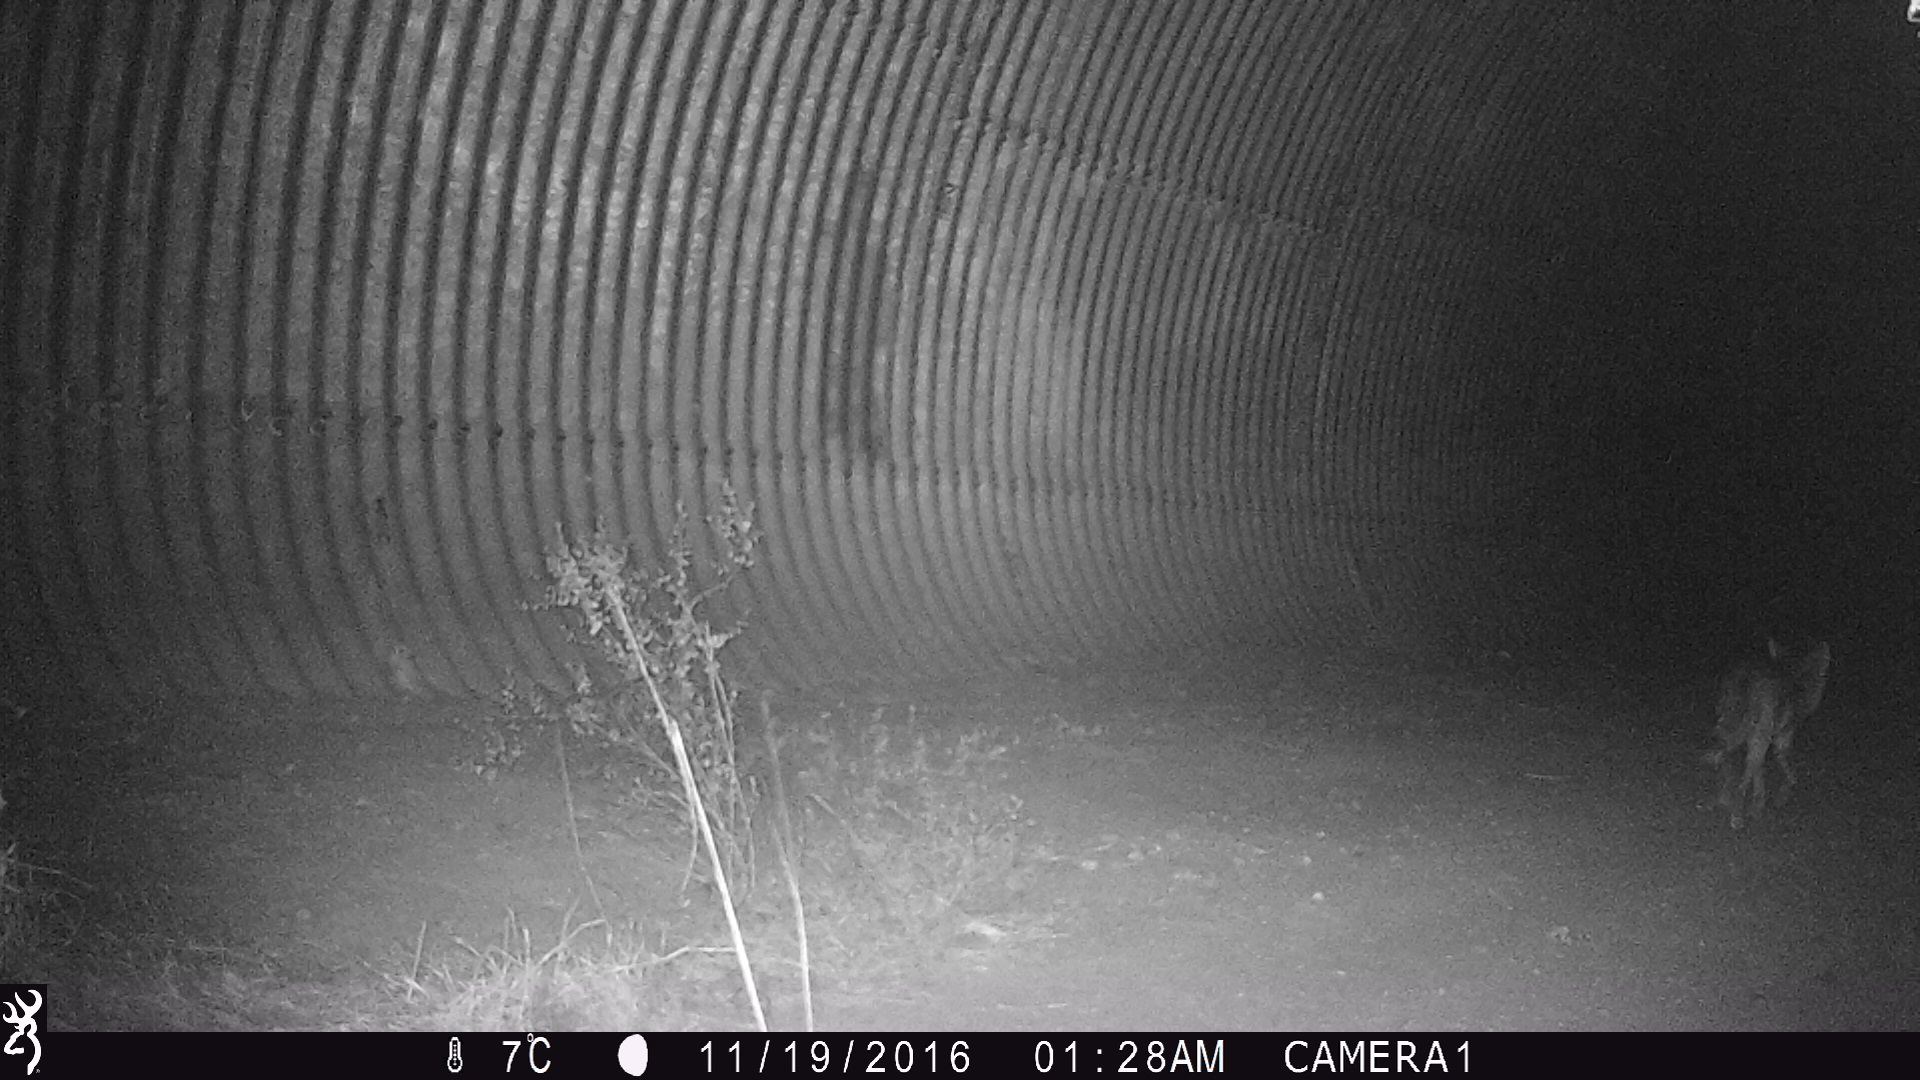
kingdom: Animalia
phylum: Chordata
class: Mammalia
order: Carnivora
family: Canidae
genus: Canis
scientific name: Canis latrans
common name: Coyote
